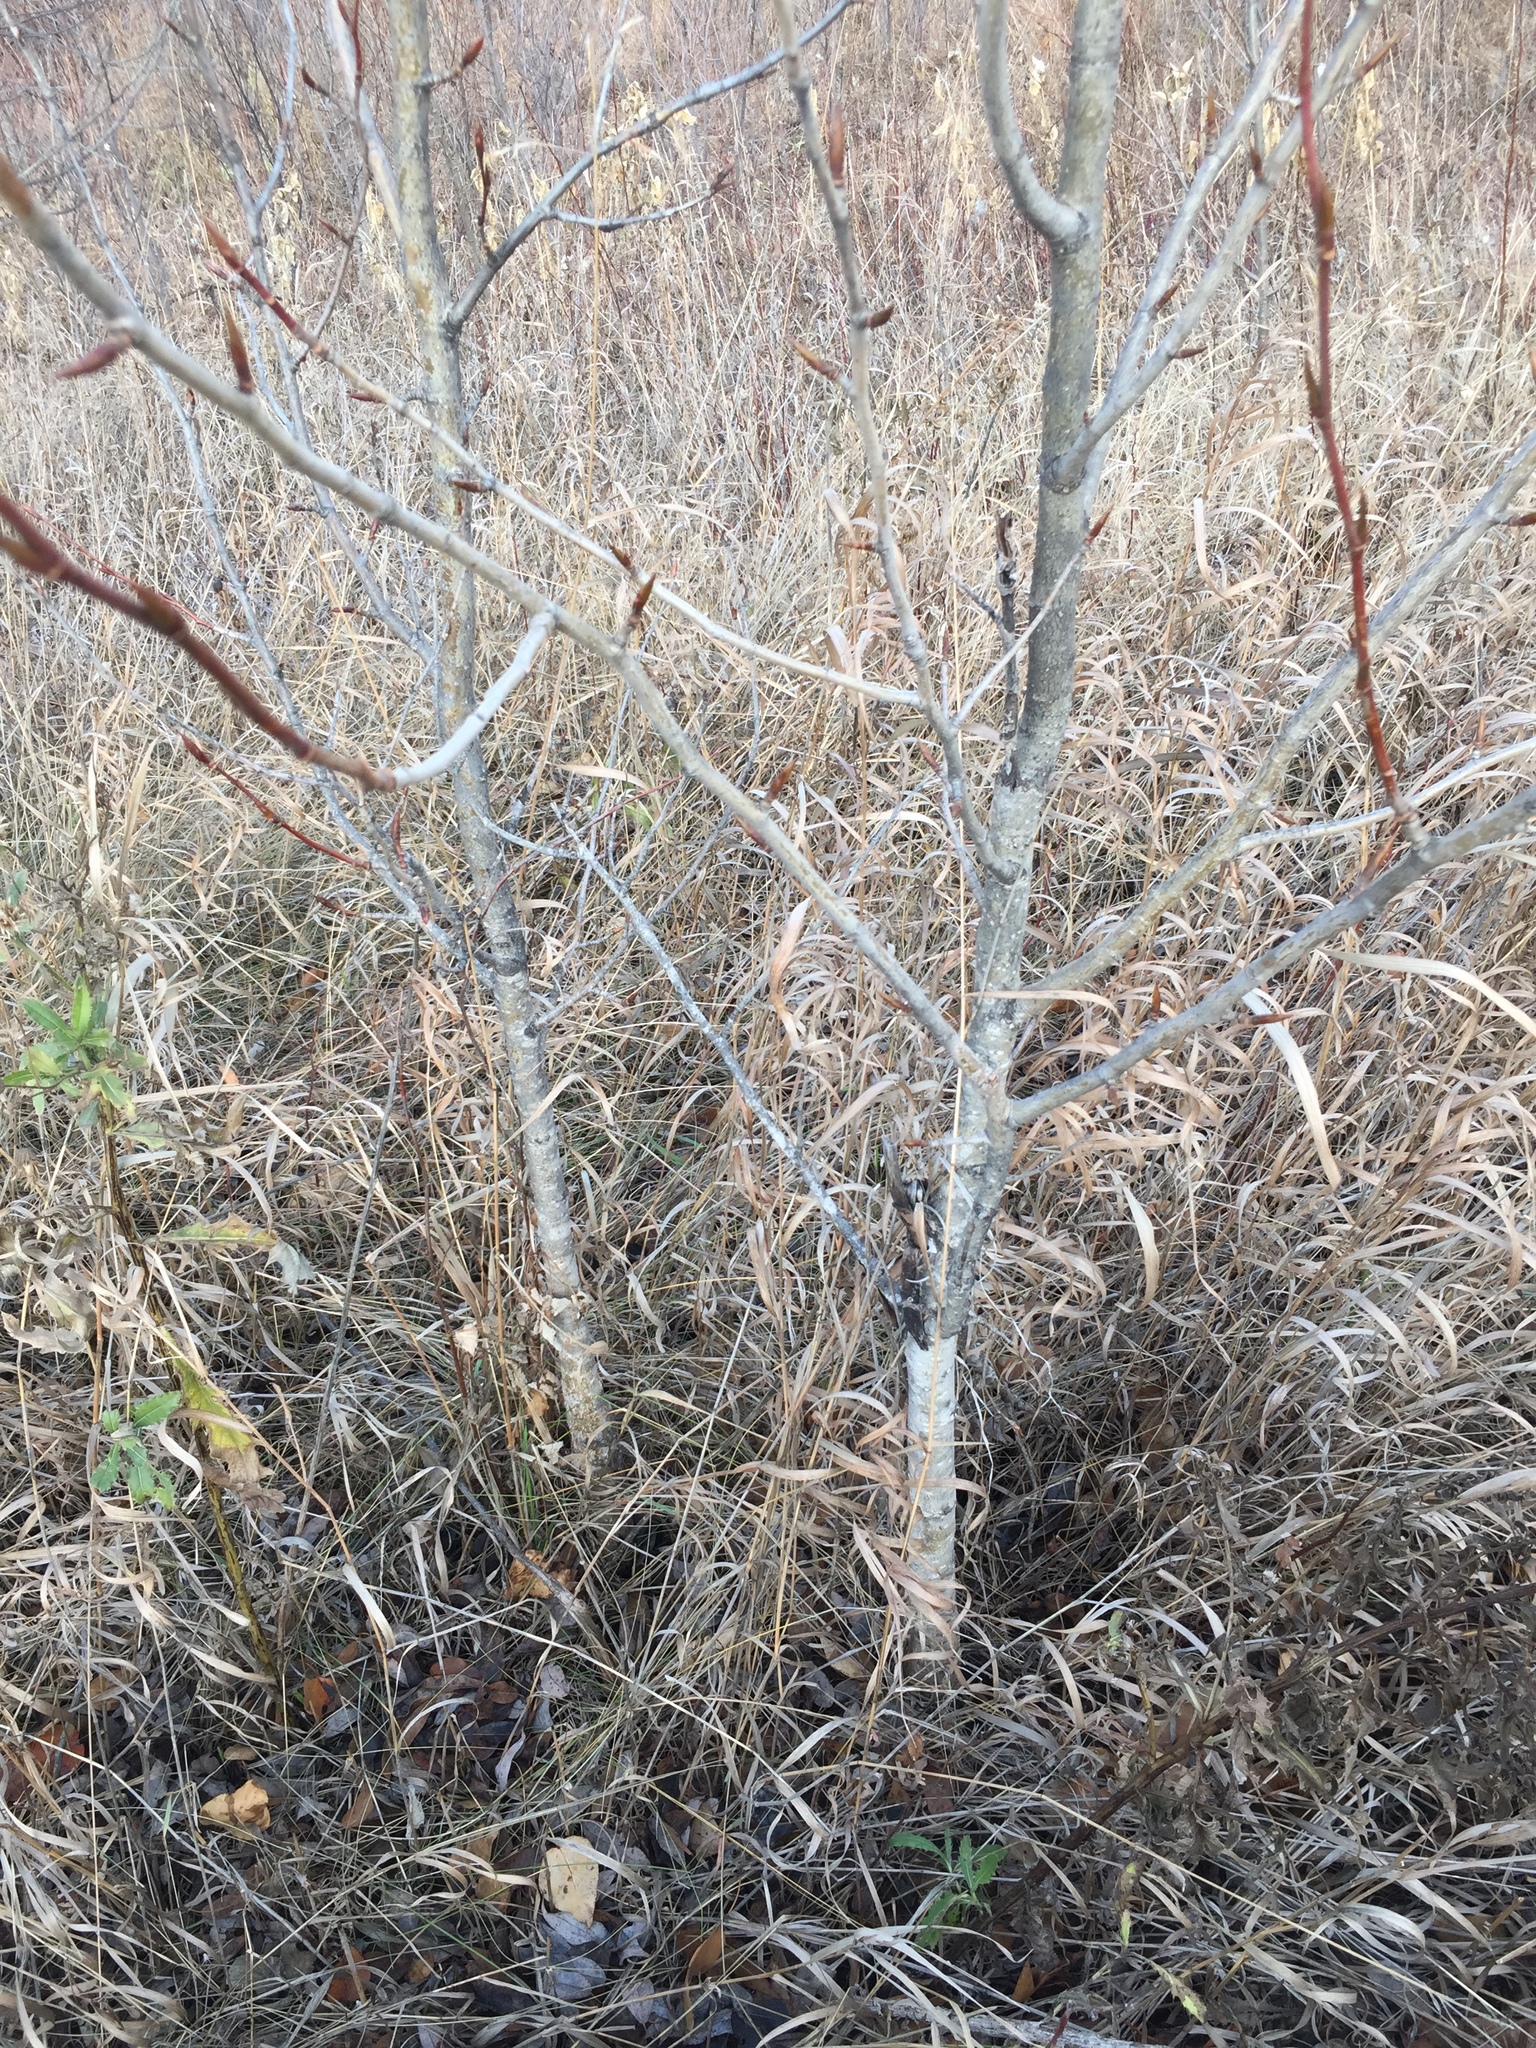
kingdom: Plantae
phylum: Tracheophyta
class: Magnoliopsida
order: Malpighiales
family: Salicaceae
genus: Populus
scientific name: Populus balsamifera
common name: Balsam poplar
